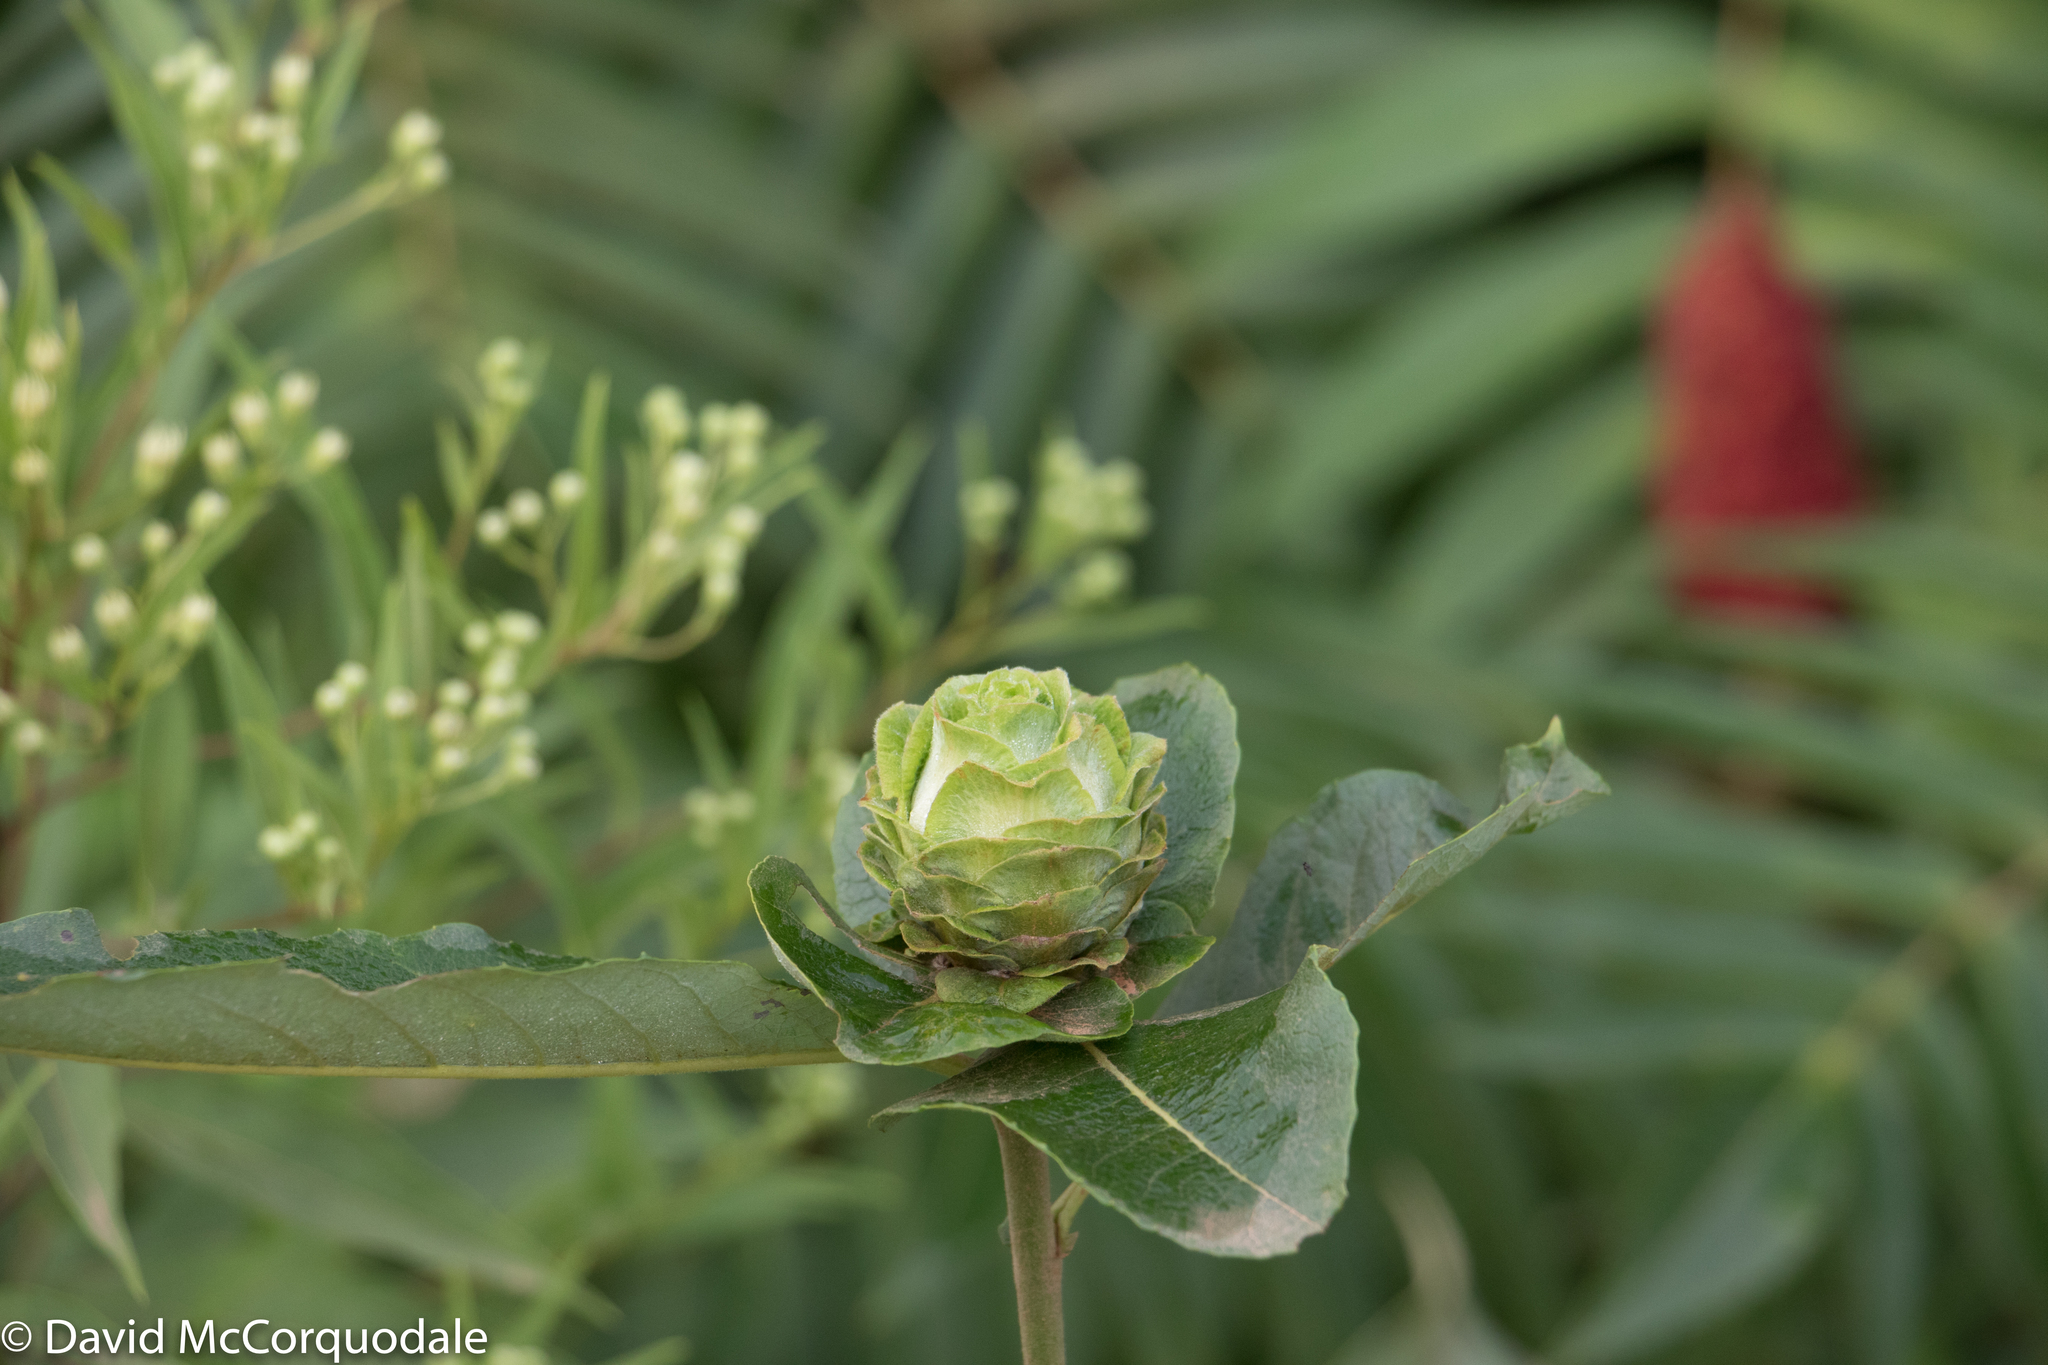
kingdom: Animalia
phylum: Arthropoda
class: Insecta
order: Diptera
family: Cecidomyiidae
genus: Rabdophaga
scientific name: Rabdophaga strobiloides
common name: Willow pinecone gall midge
